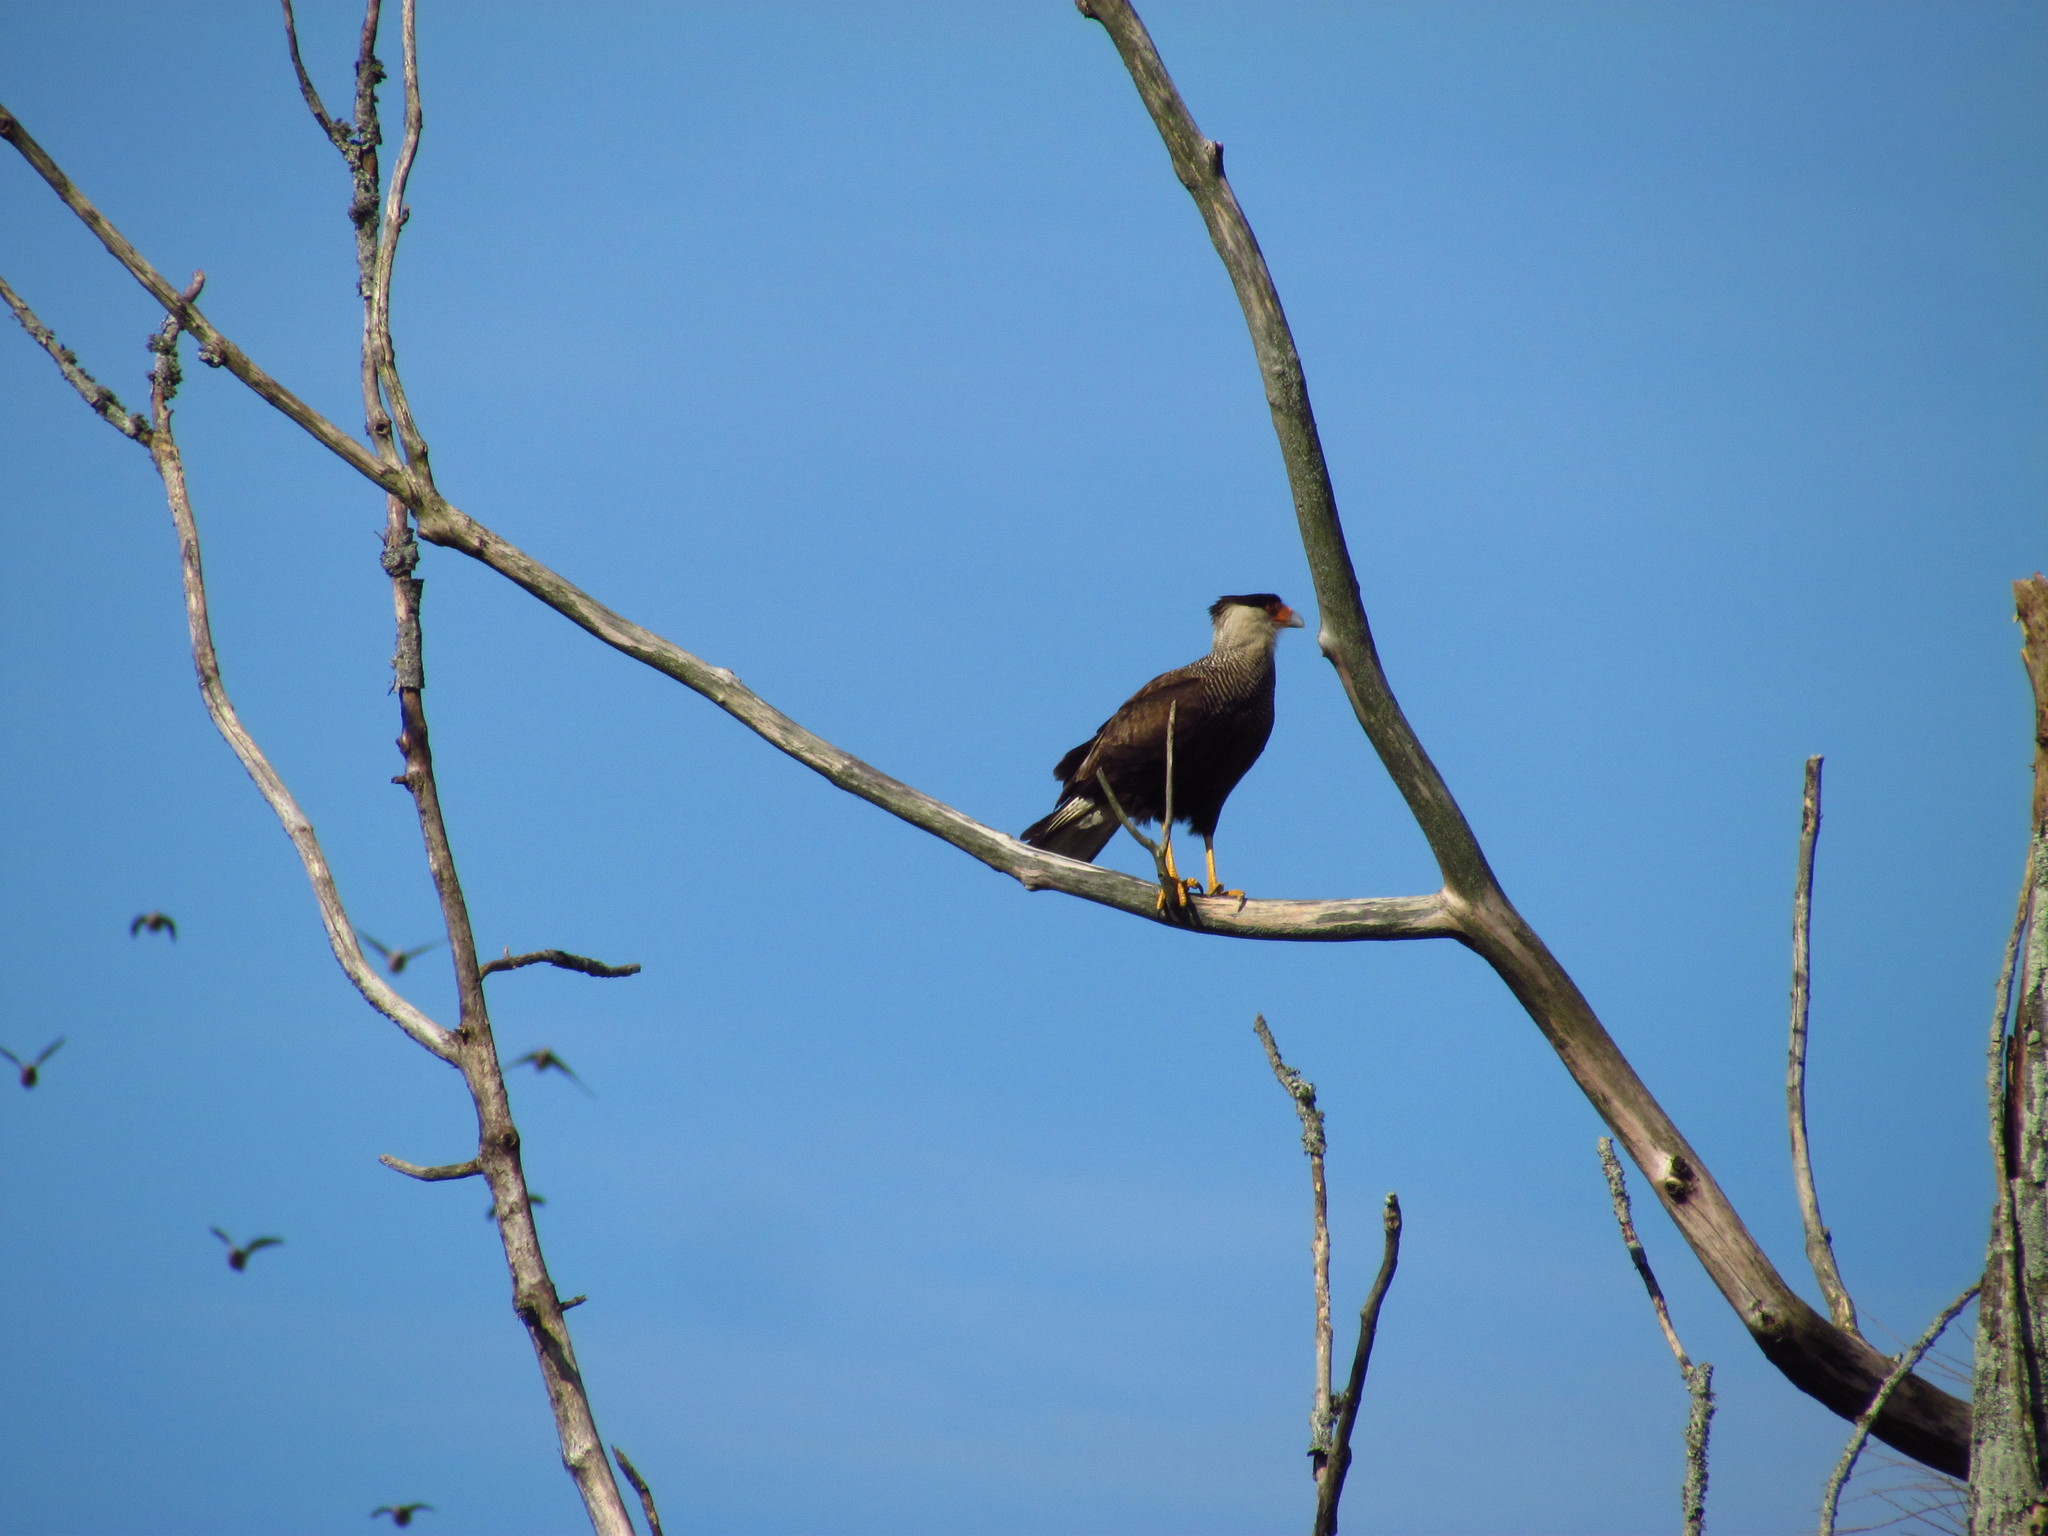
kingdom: Animalia
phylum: Chordata
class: Aves
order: Falconiformes
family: Falconidae
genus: Caracara
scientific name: Caracara plancus
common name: Southern caracara
